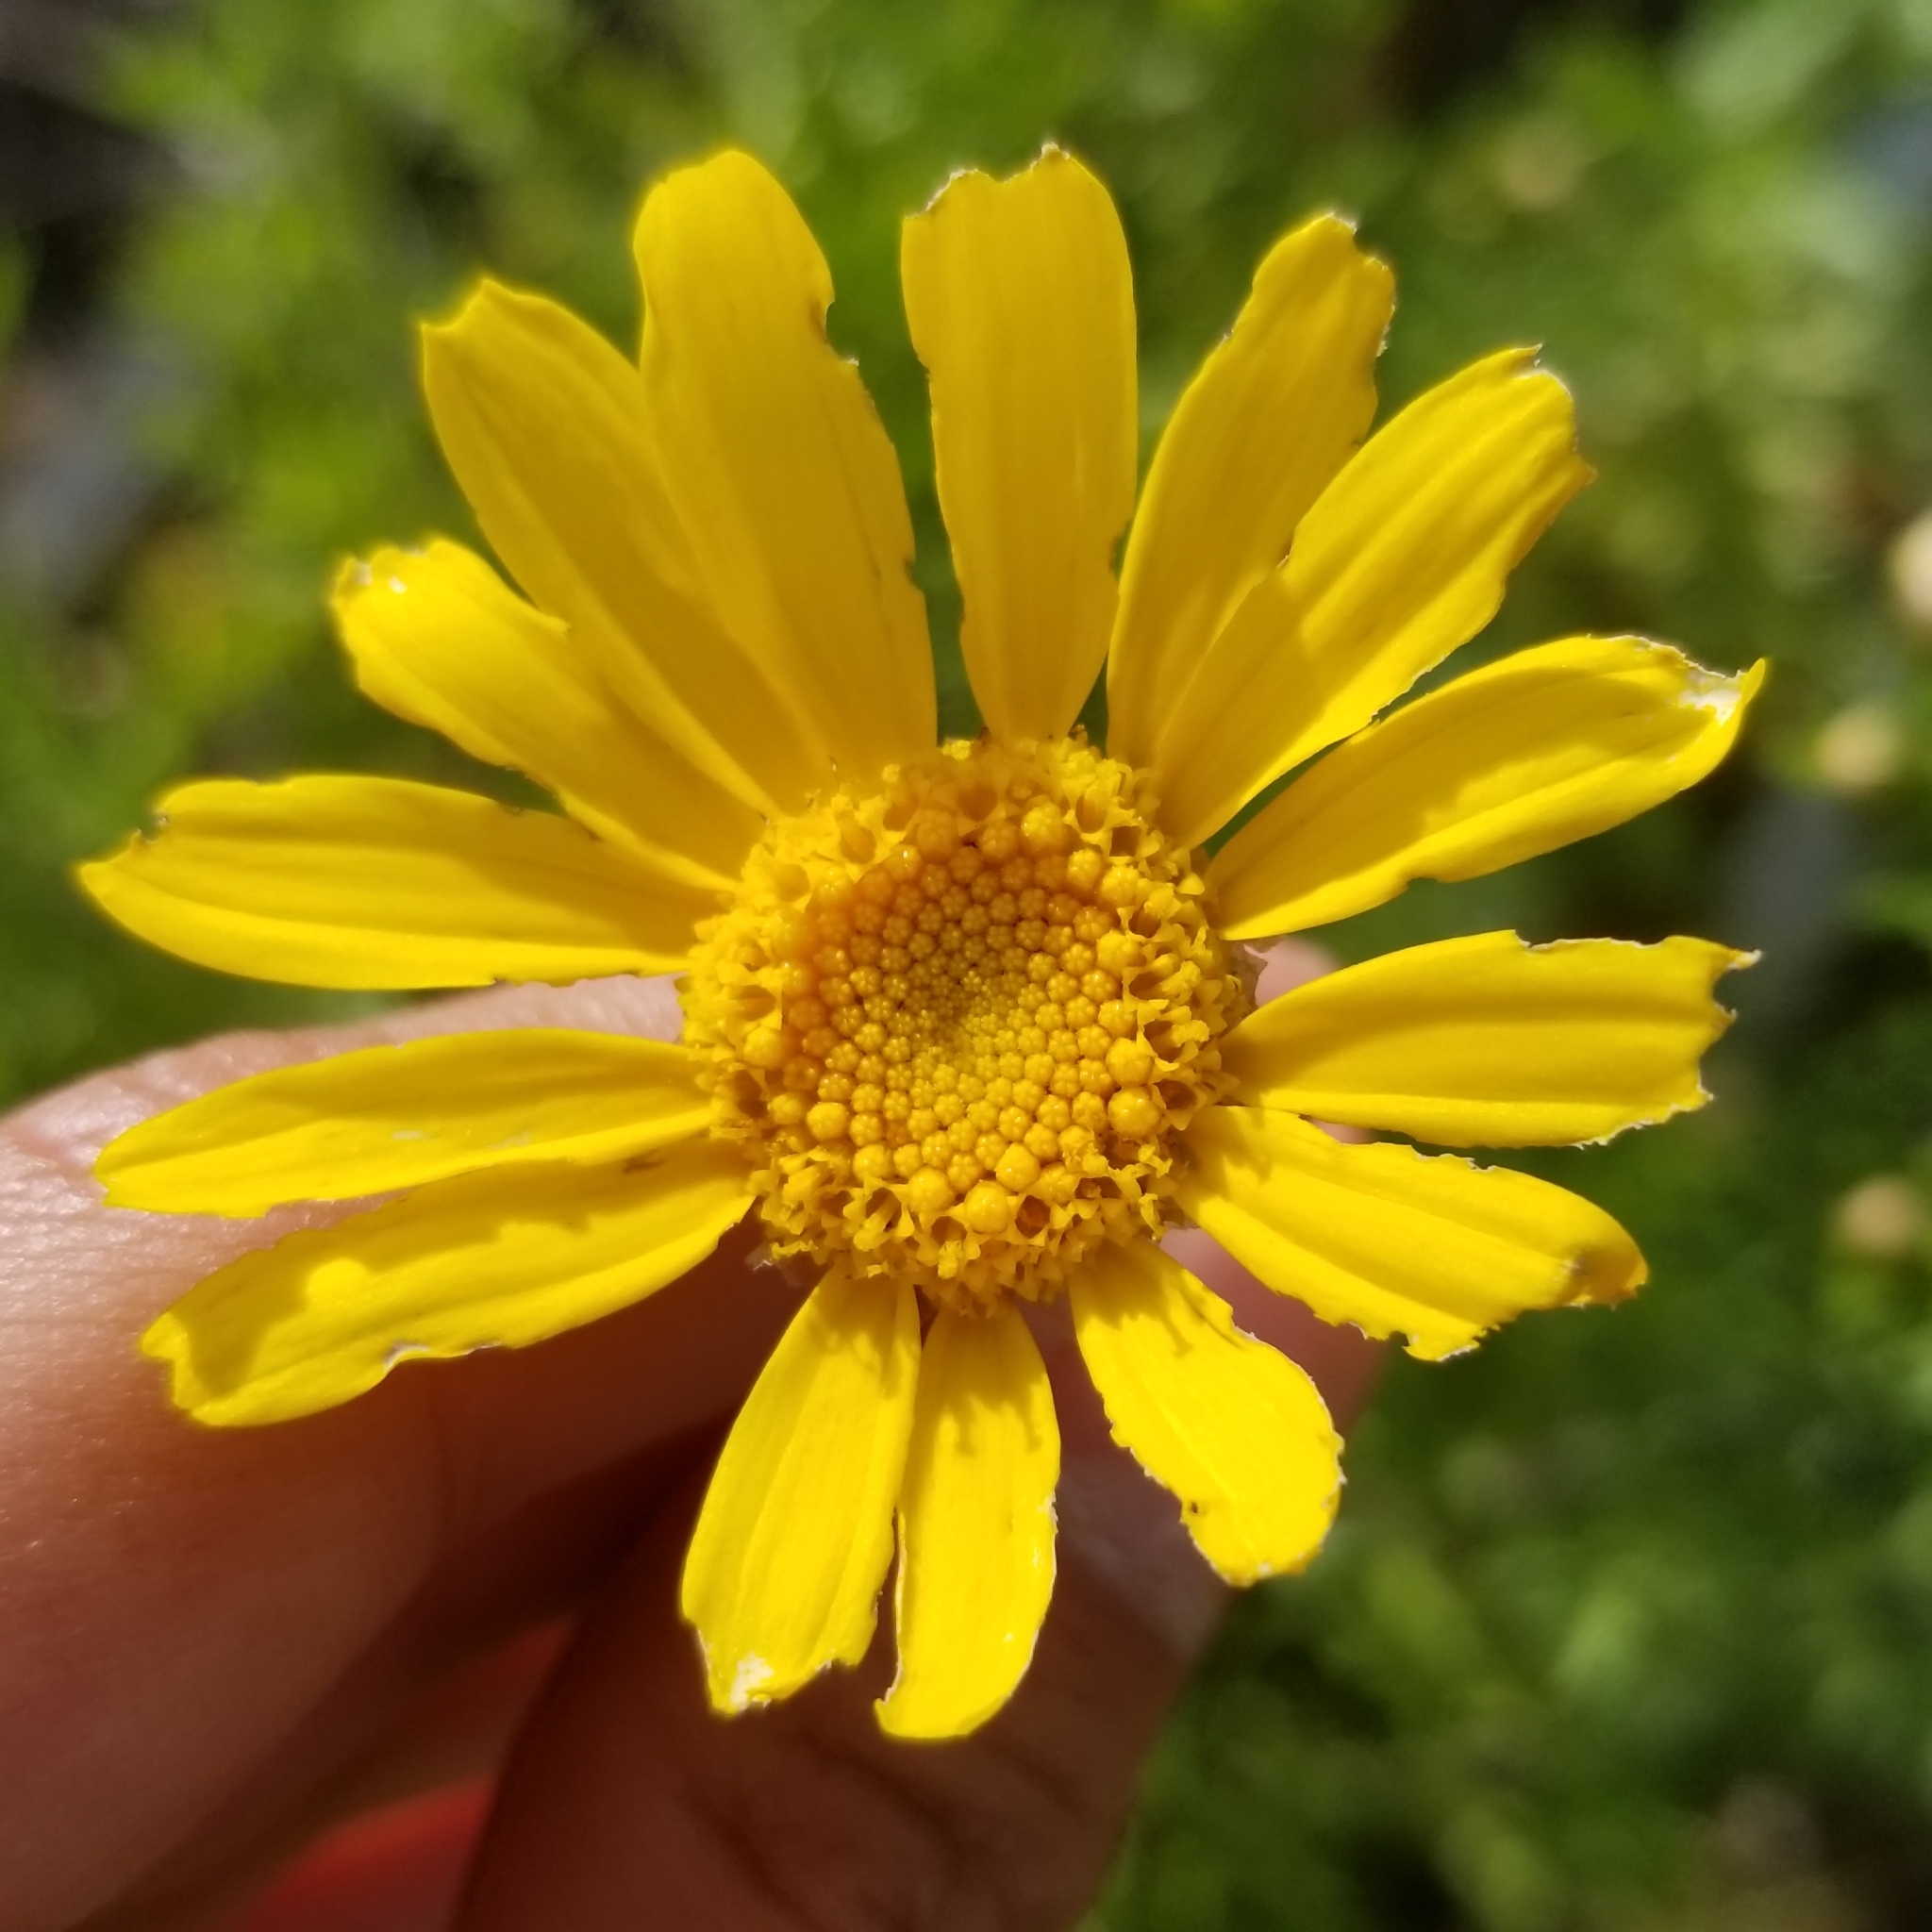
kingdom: Plantae
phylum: Tracheophyta
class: Magnoliopsida
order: Asterales
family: Asteraceae
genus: Glebionis
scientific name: Glebionis coronaria
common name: Crowndaisy
